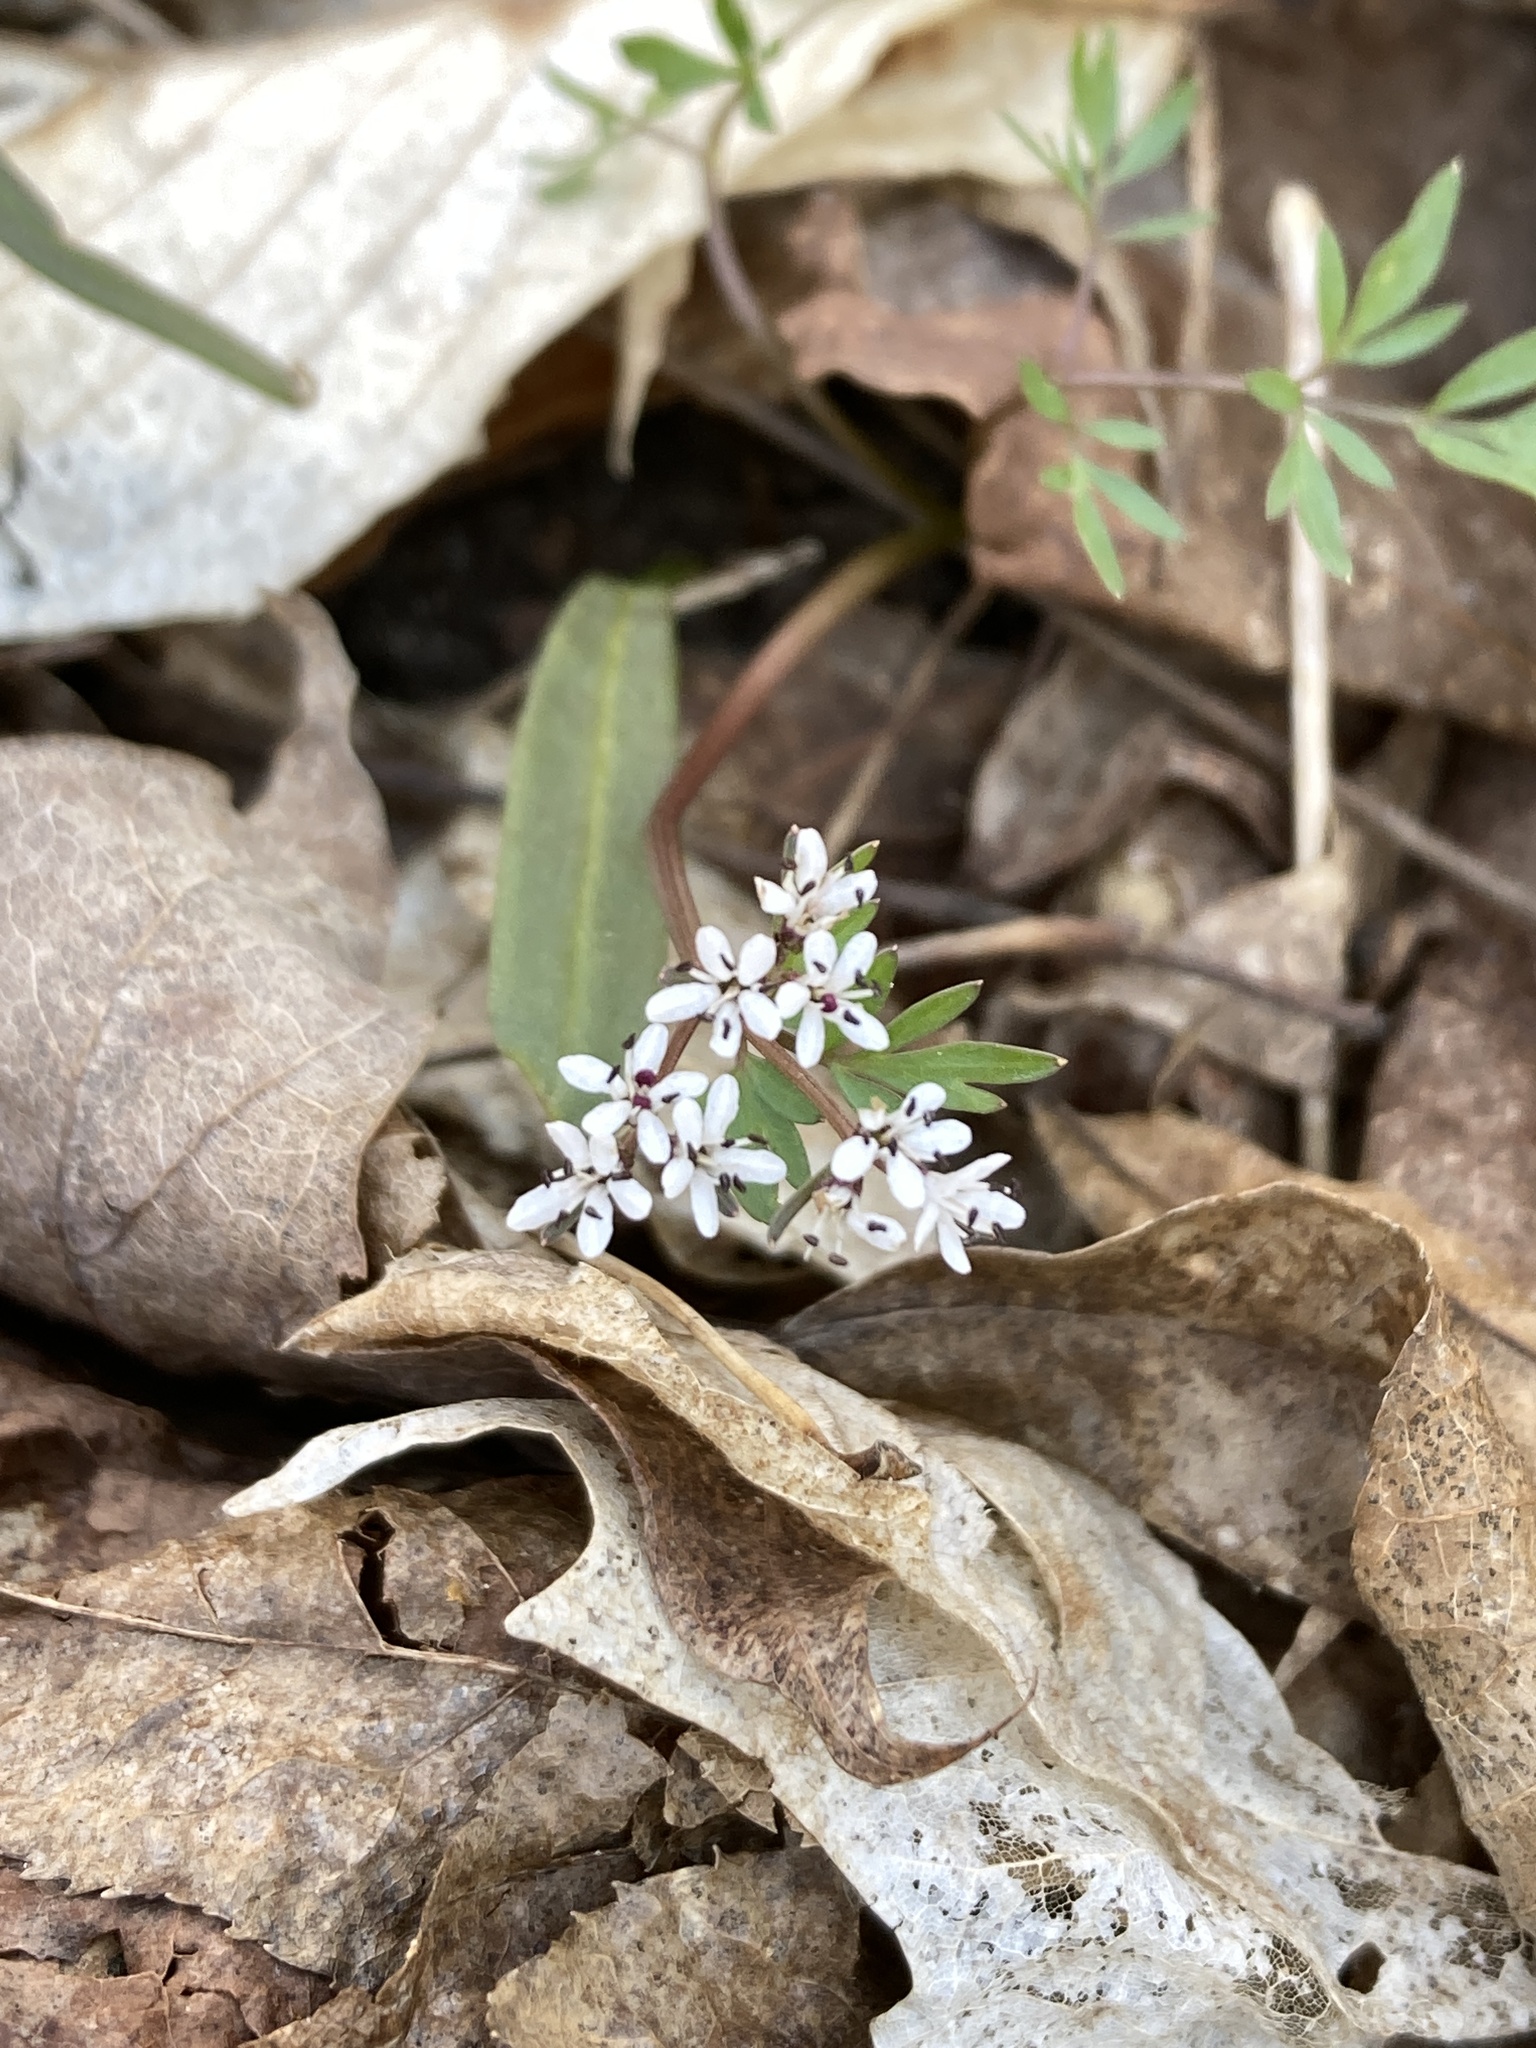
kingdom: Plantae
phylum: Tracheophyta
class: Magnoliopsida
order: Apiales
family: Apiaceae
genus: Erigenia
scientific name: Erigenia bulbosa
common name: Pepper-and-salt
